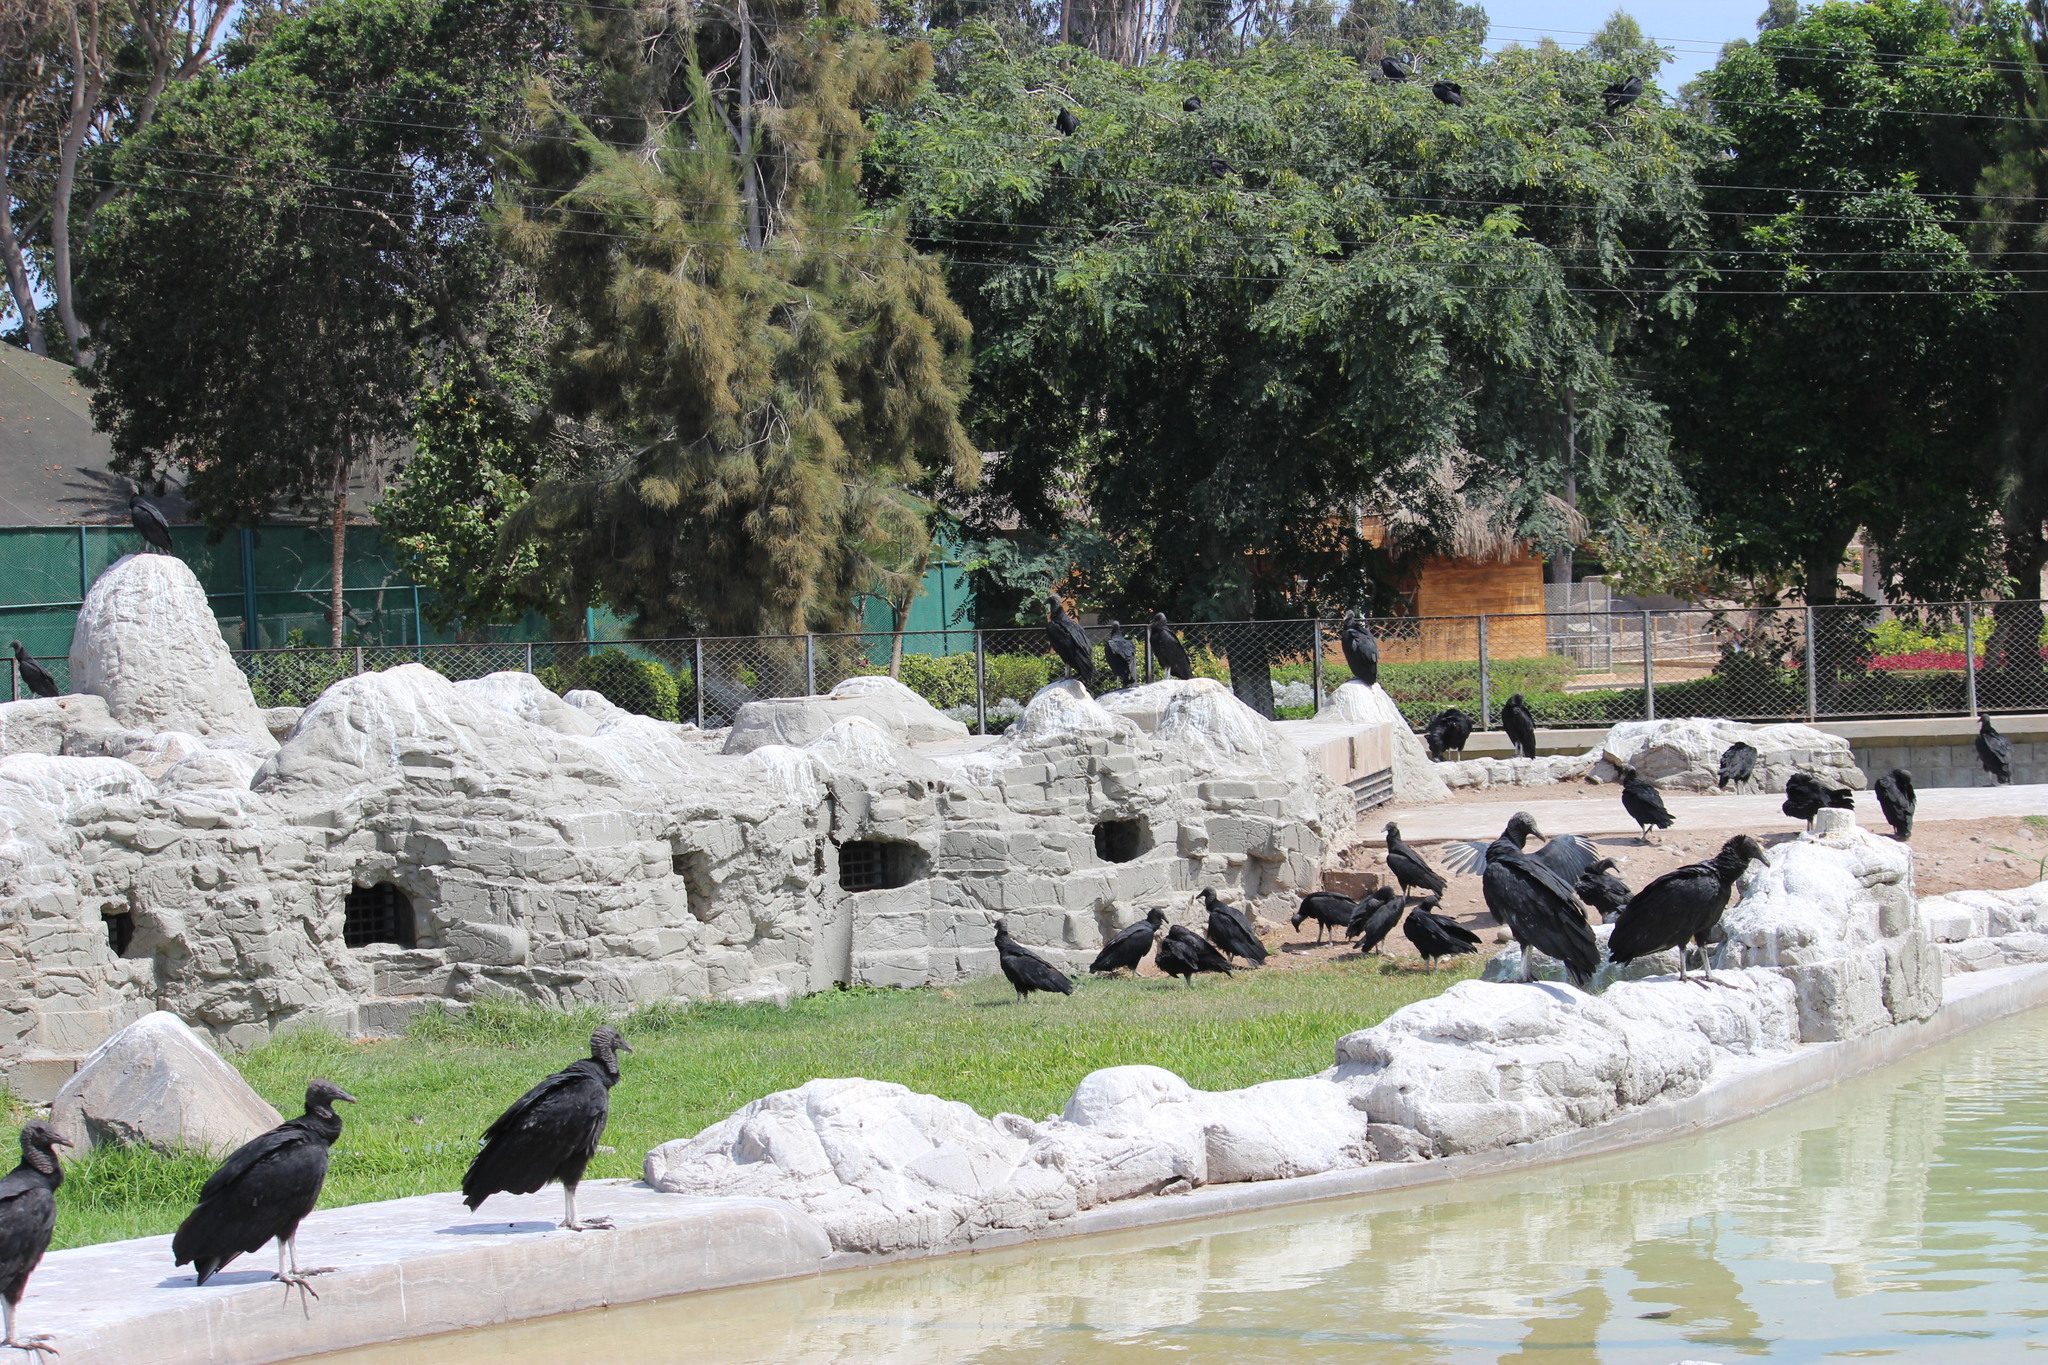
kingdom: Animalia
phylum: Chordata
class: Aves
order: Accipitriformes
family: Cathartidae
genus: Coragyps
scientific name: Coragyps atratus
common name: Black vulture
